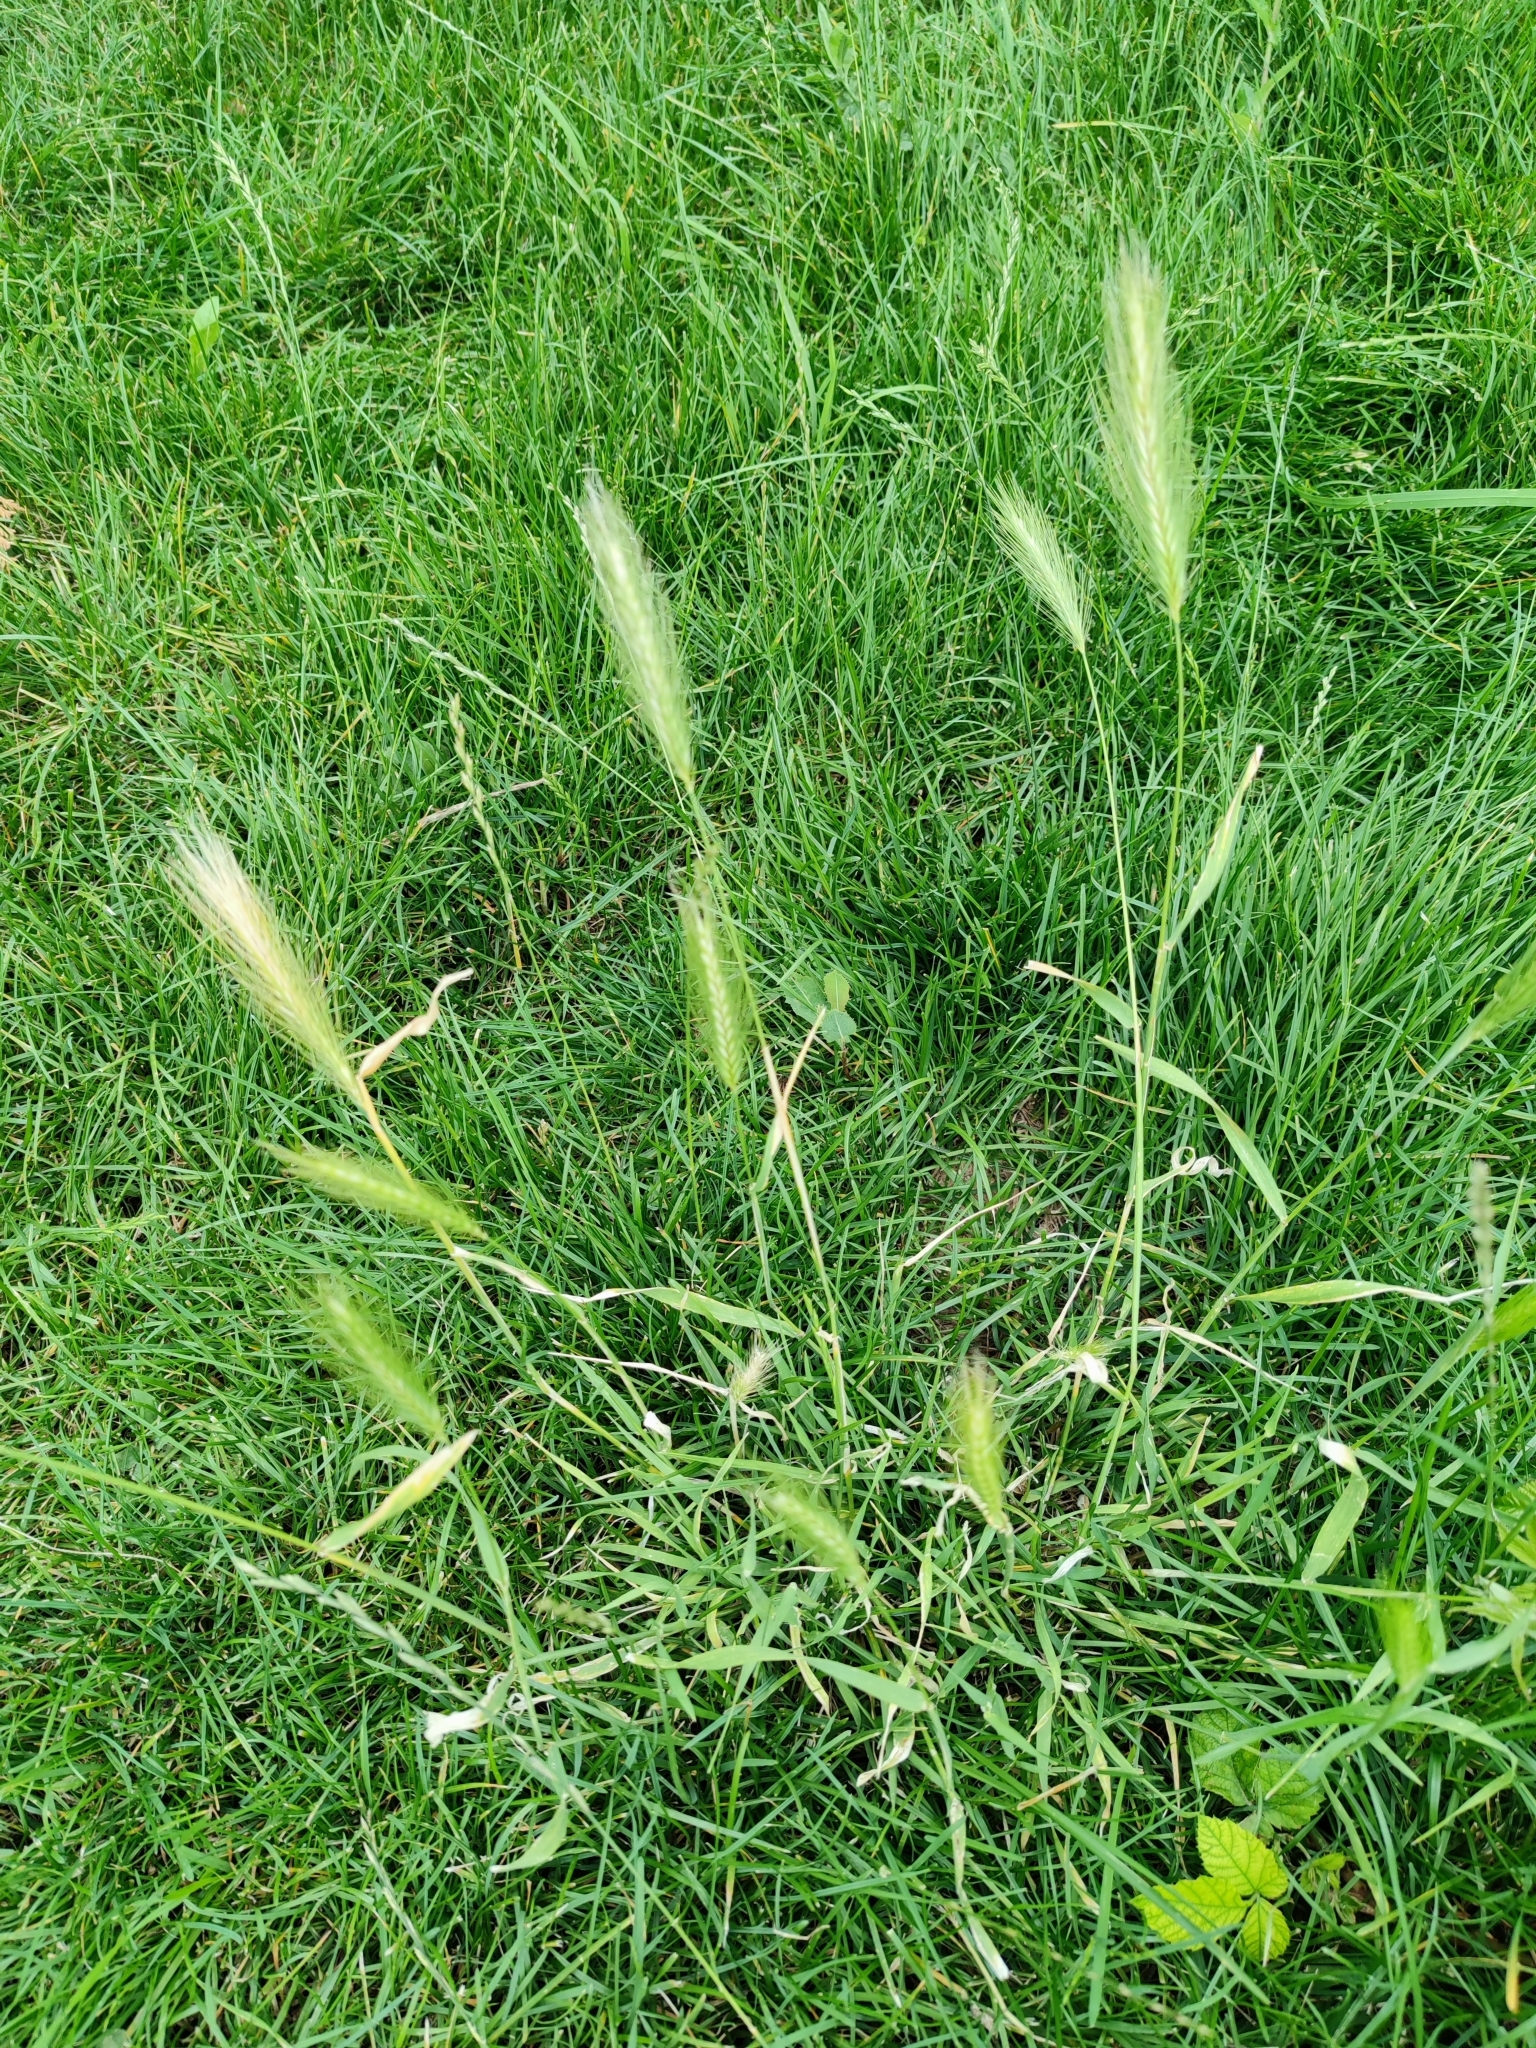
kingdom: Plantae
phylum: Tracheophyta
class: Liliopsida
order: Poales
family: Poaceae
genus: Hordeum
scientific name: Hordeum murinum
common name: Wall barley
